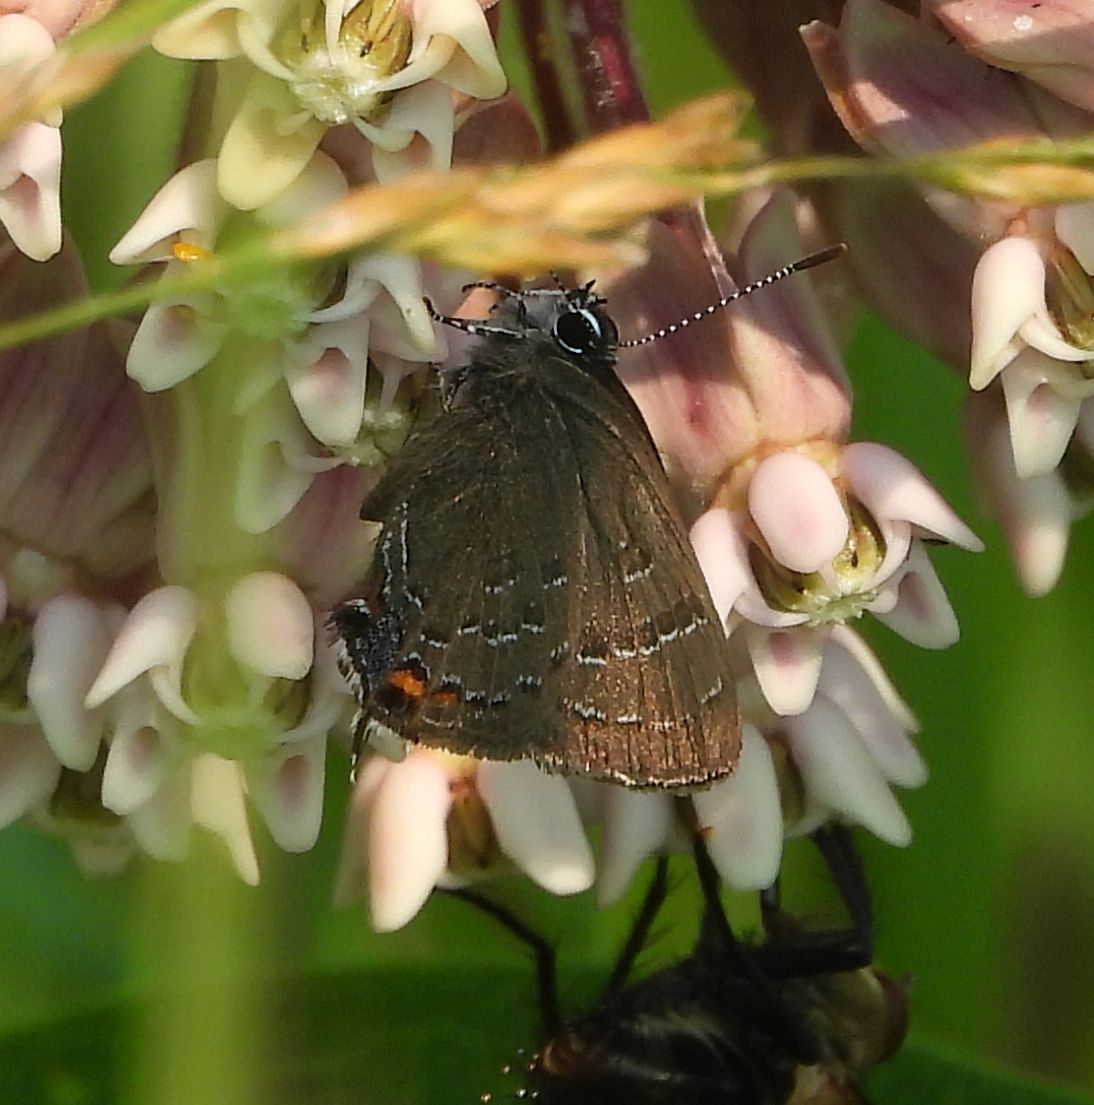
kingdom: Animalia
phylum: Arthropoda
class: Insecta
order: Lepidoptera
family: Lycaenidae
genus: Satyrium
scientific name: Satyrium calanus
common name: Banded hairstreak
